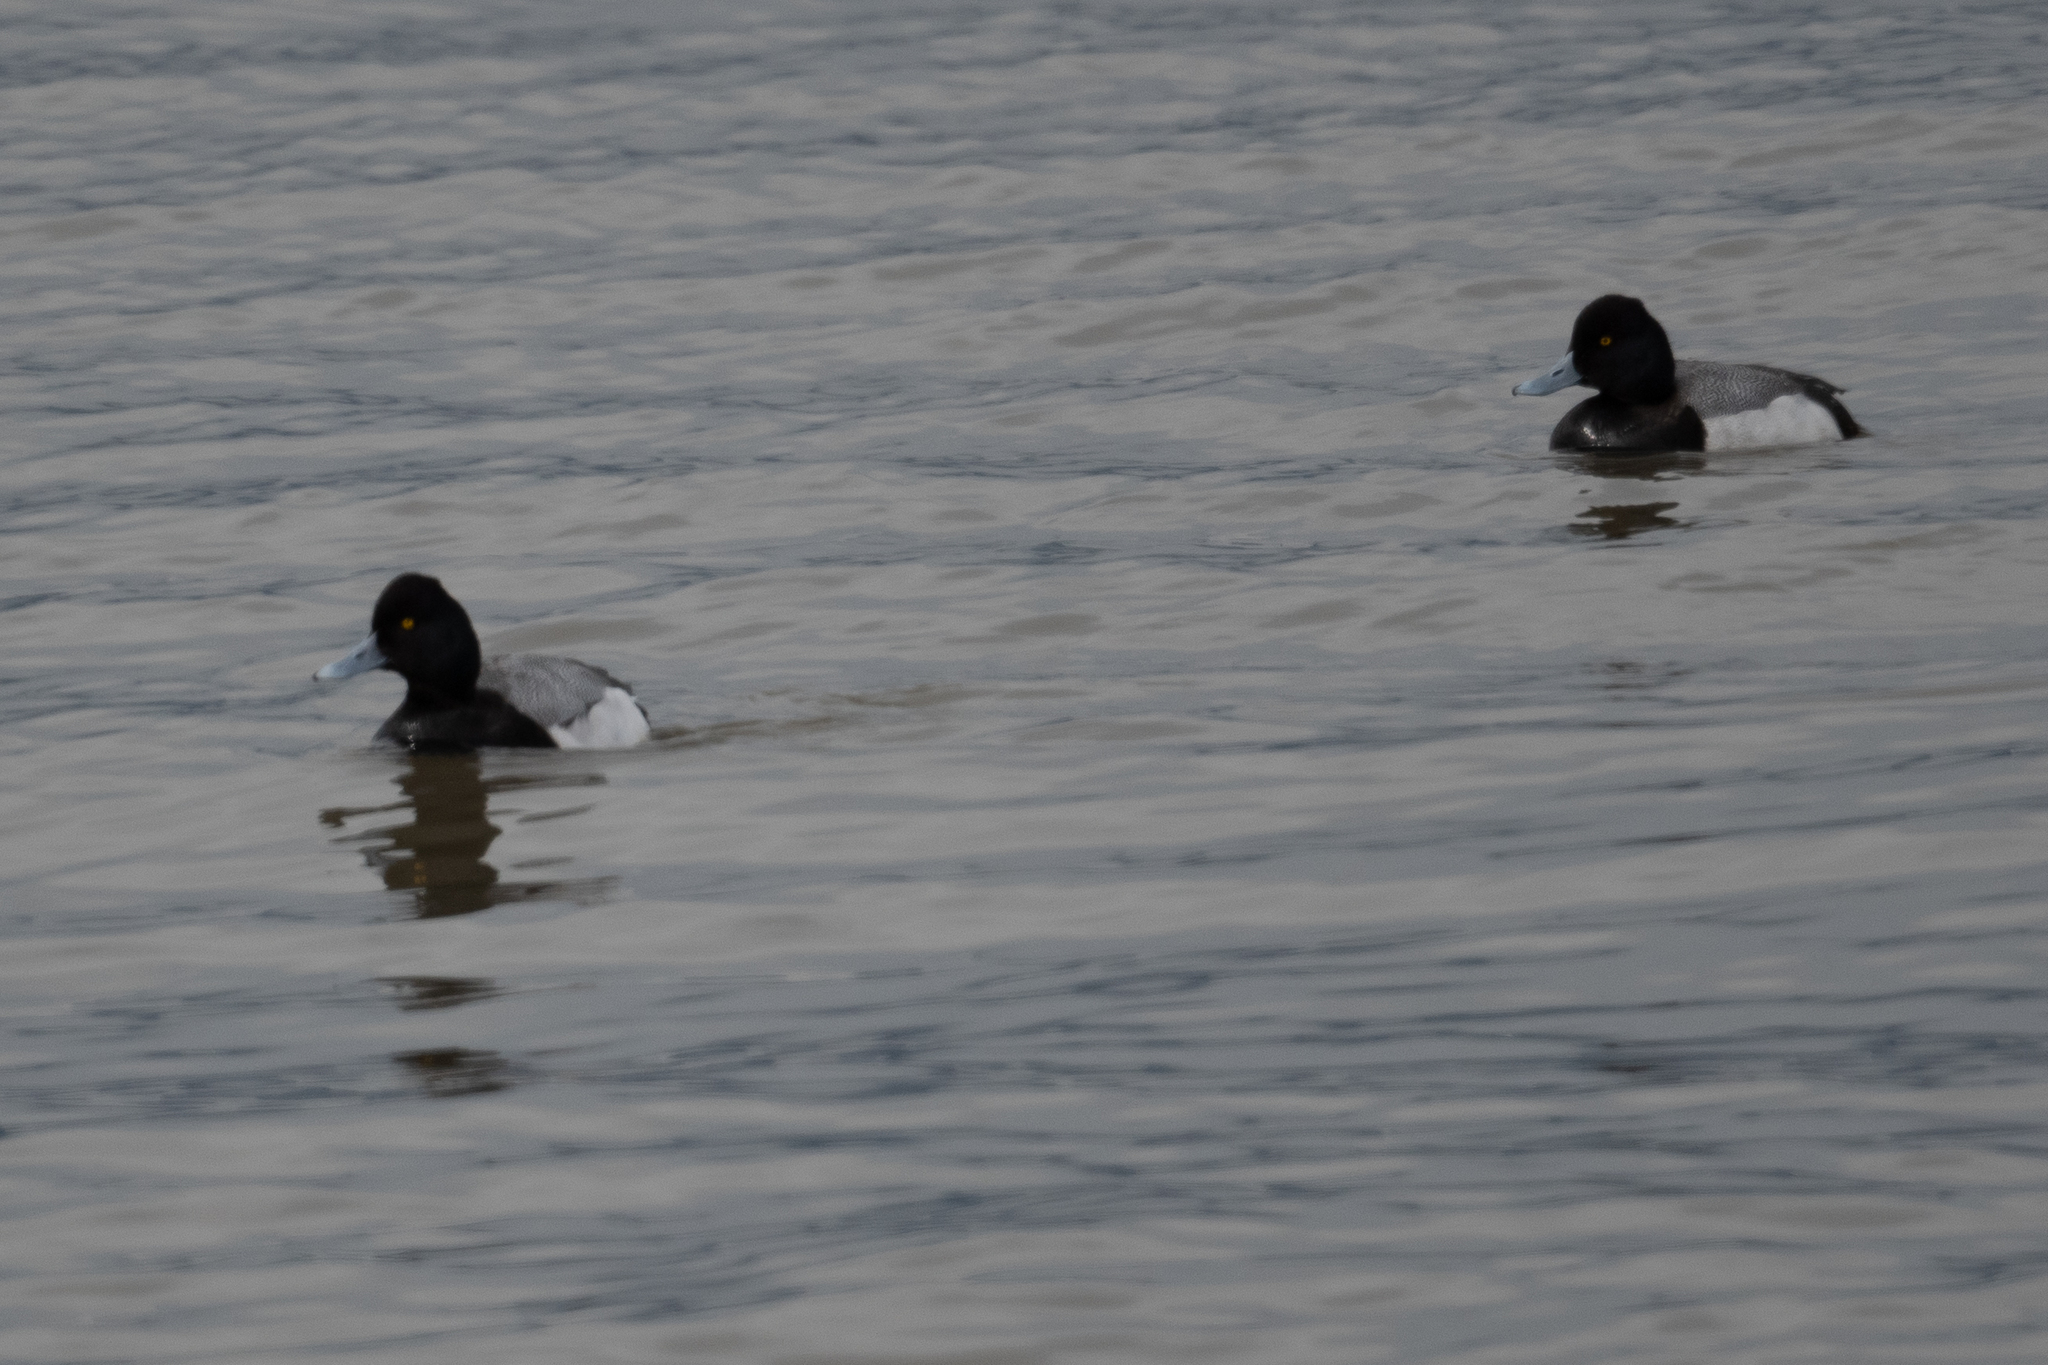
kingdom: Animalia
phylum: Chordata
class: Aves
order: Anseriformes
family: Anatidae
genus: Aythya
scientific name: Aythya affinis
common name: Lesser scaup
